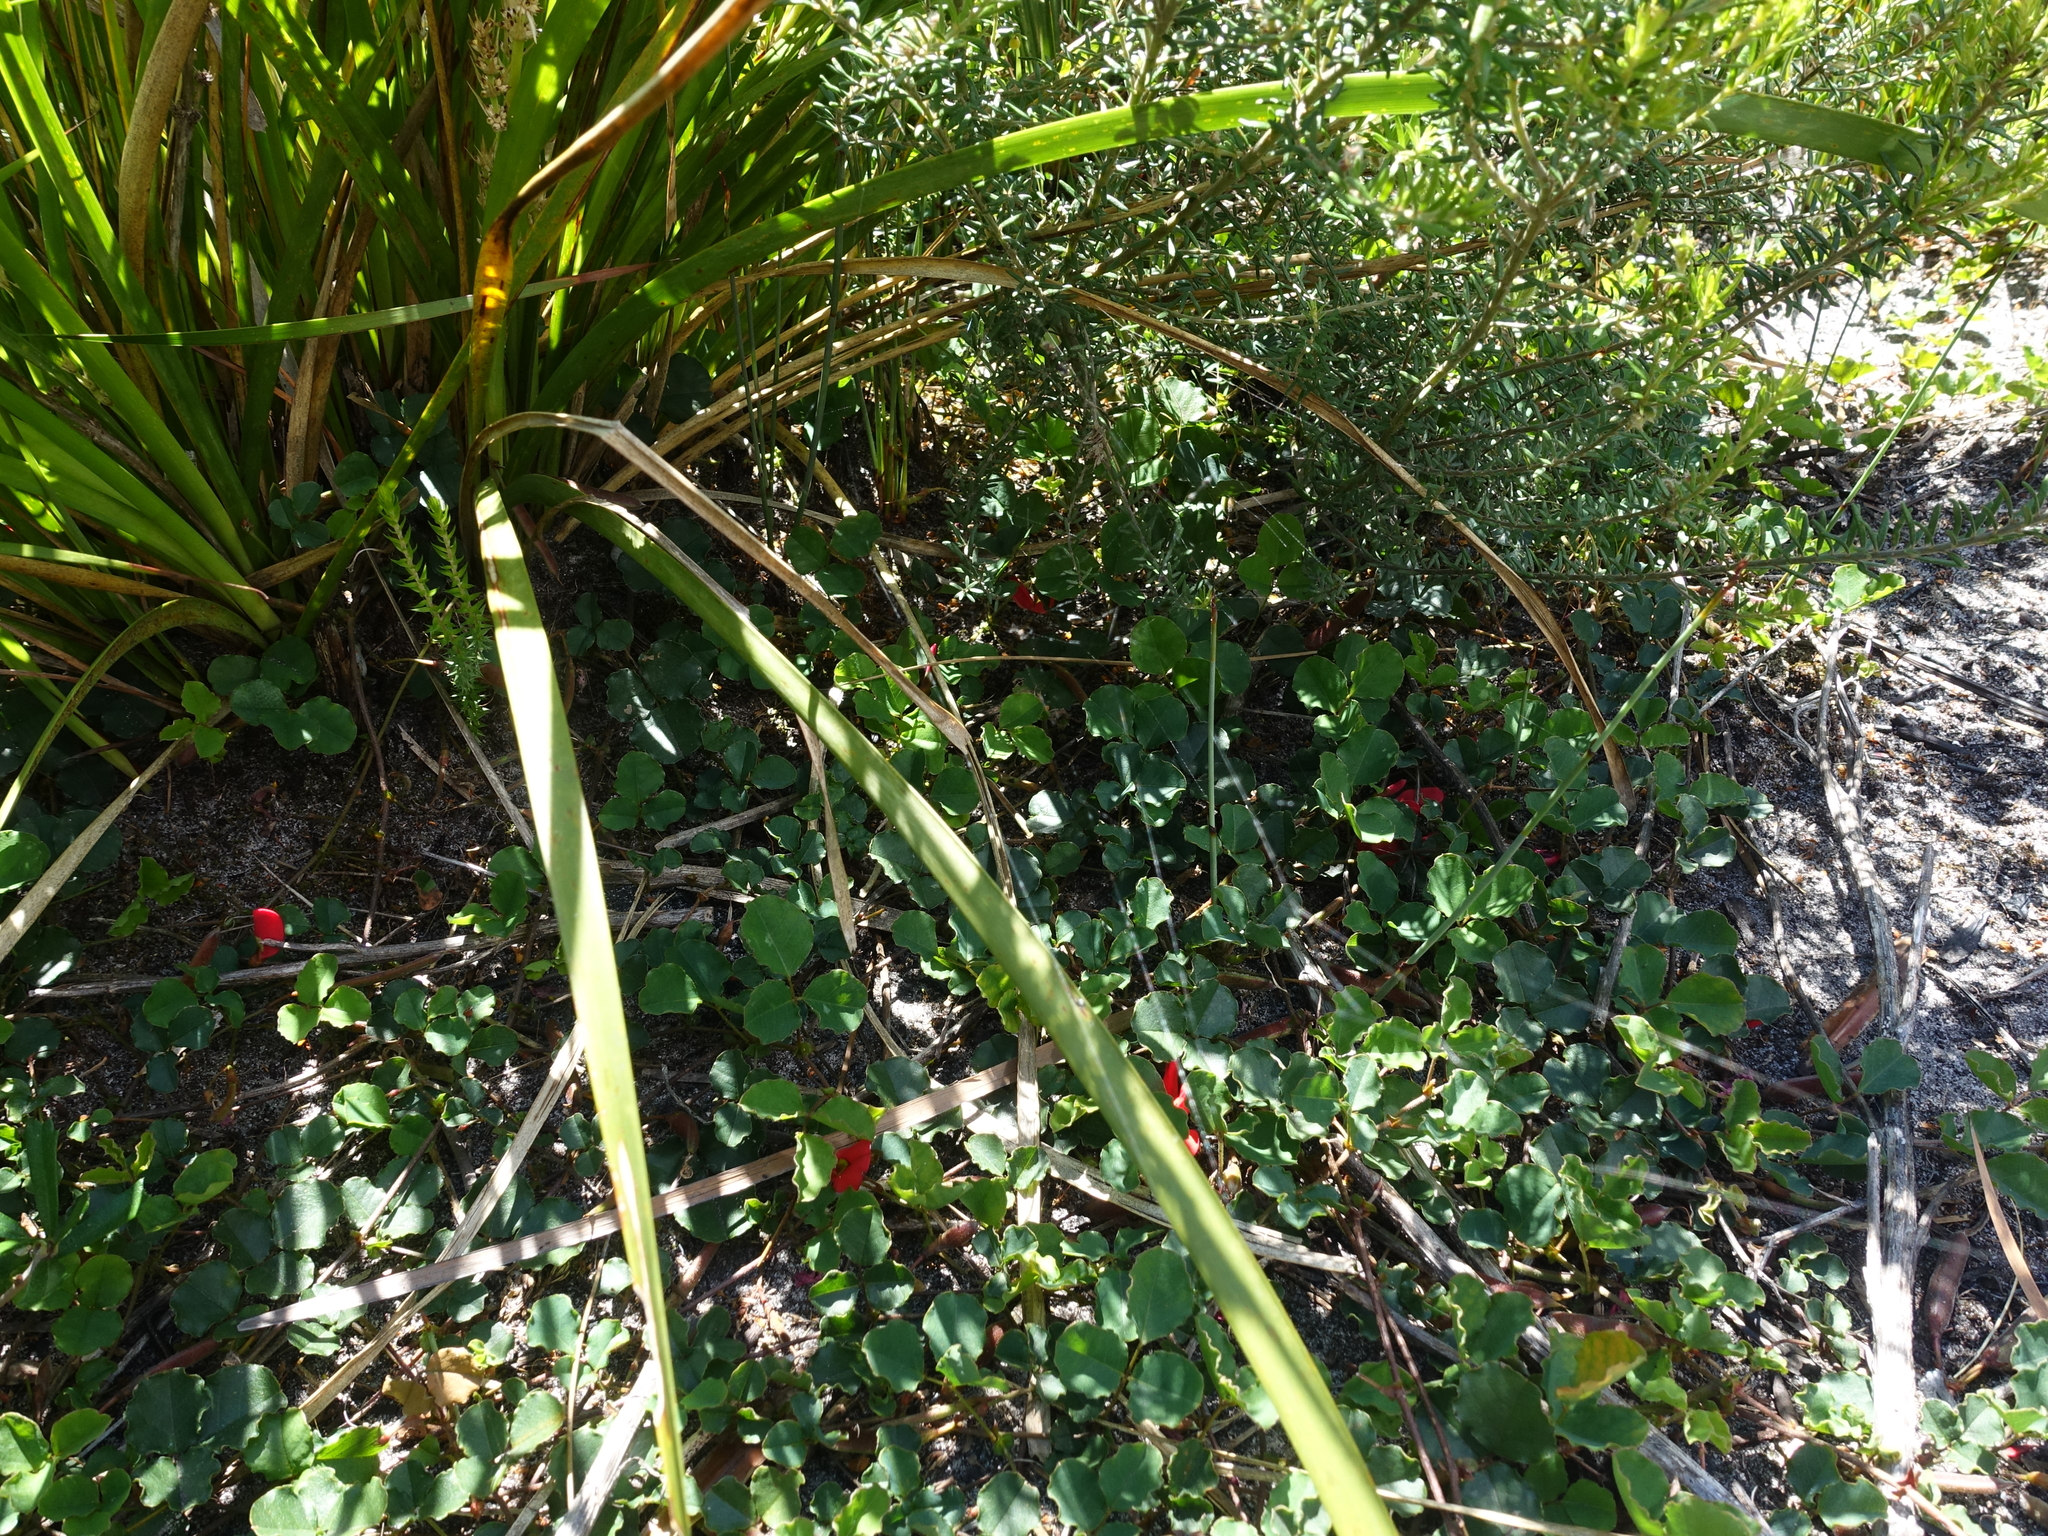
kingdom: Plantae
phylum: Tracheophyta
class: Magnoliopsida
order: Fabales
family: Fabaceae
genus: Kennedia
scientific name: Kennedia prostrata
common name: Running-postman
